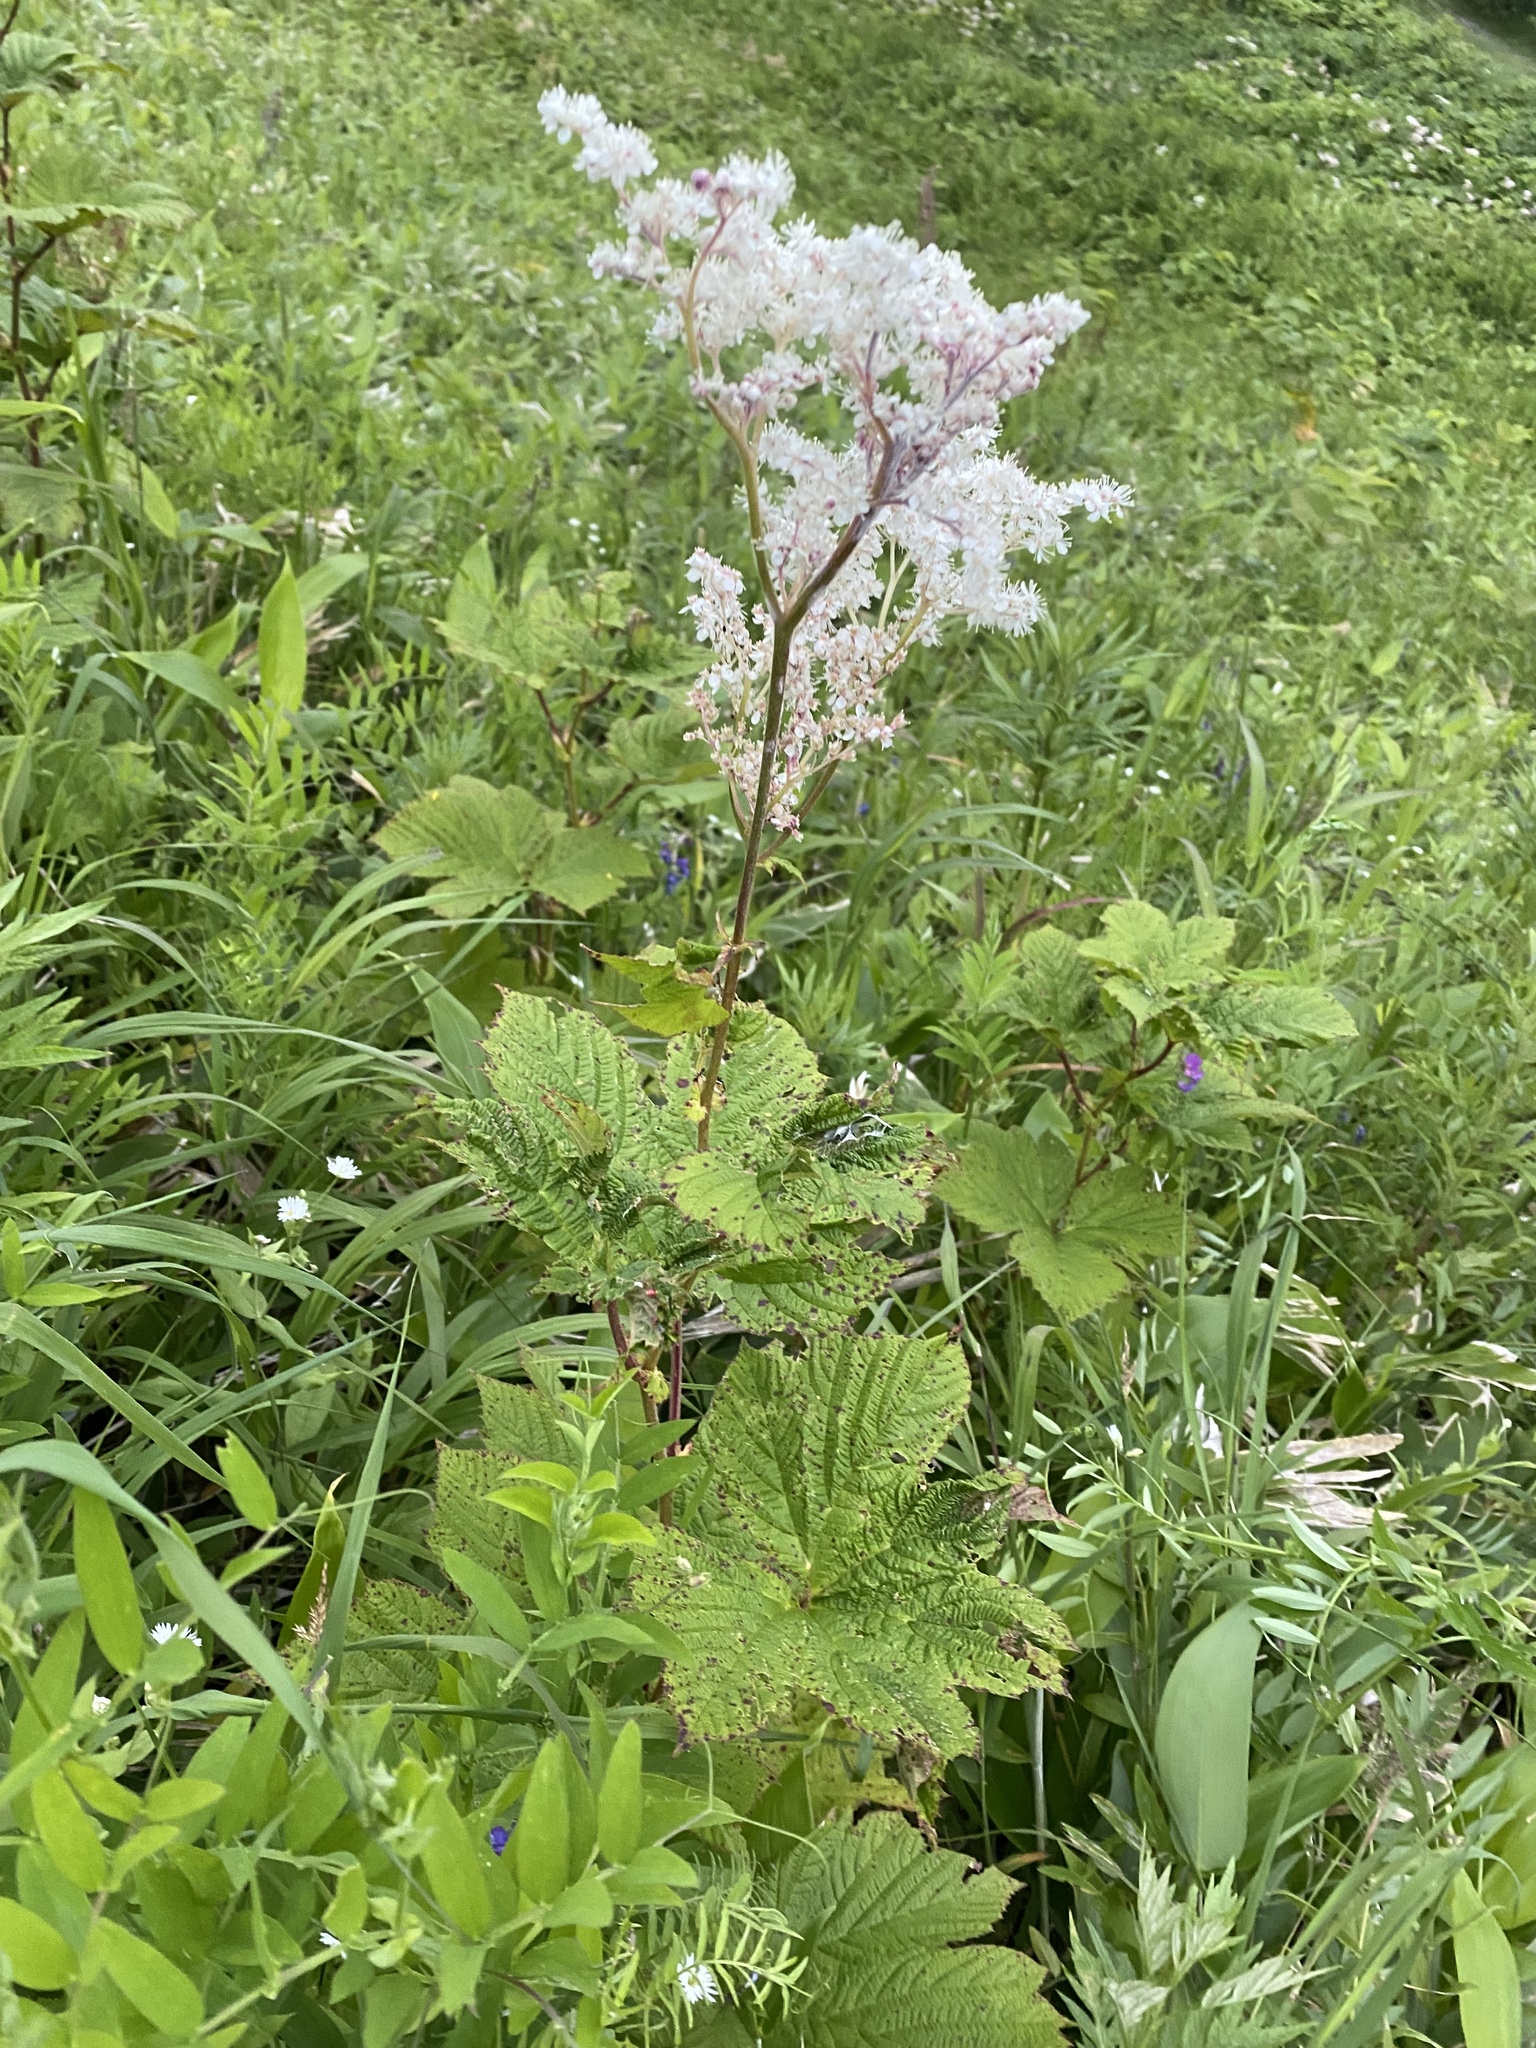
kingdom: Plantae
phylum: Tracheophyta
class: Magnoliopsida
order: Rosales
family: Rosaceae
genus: Filipendula
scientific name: Filipendula camtschatica
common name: Giant meadowsweet
